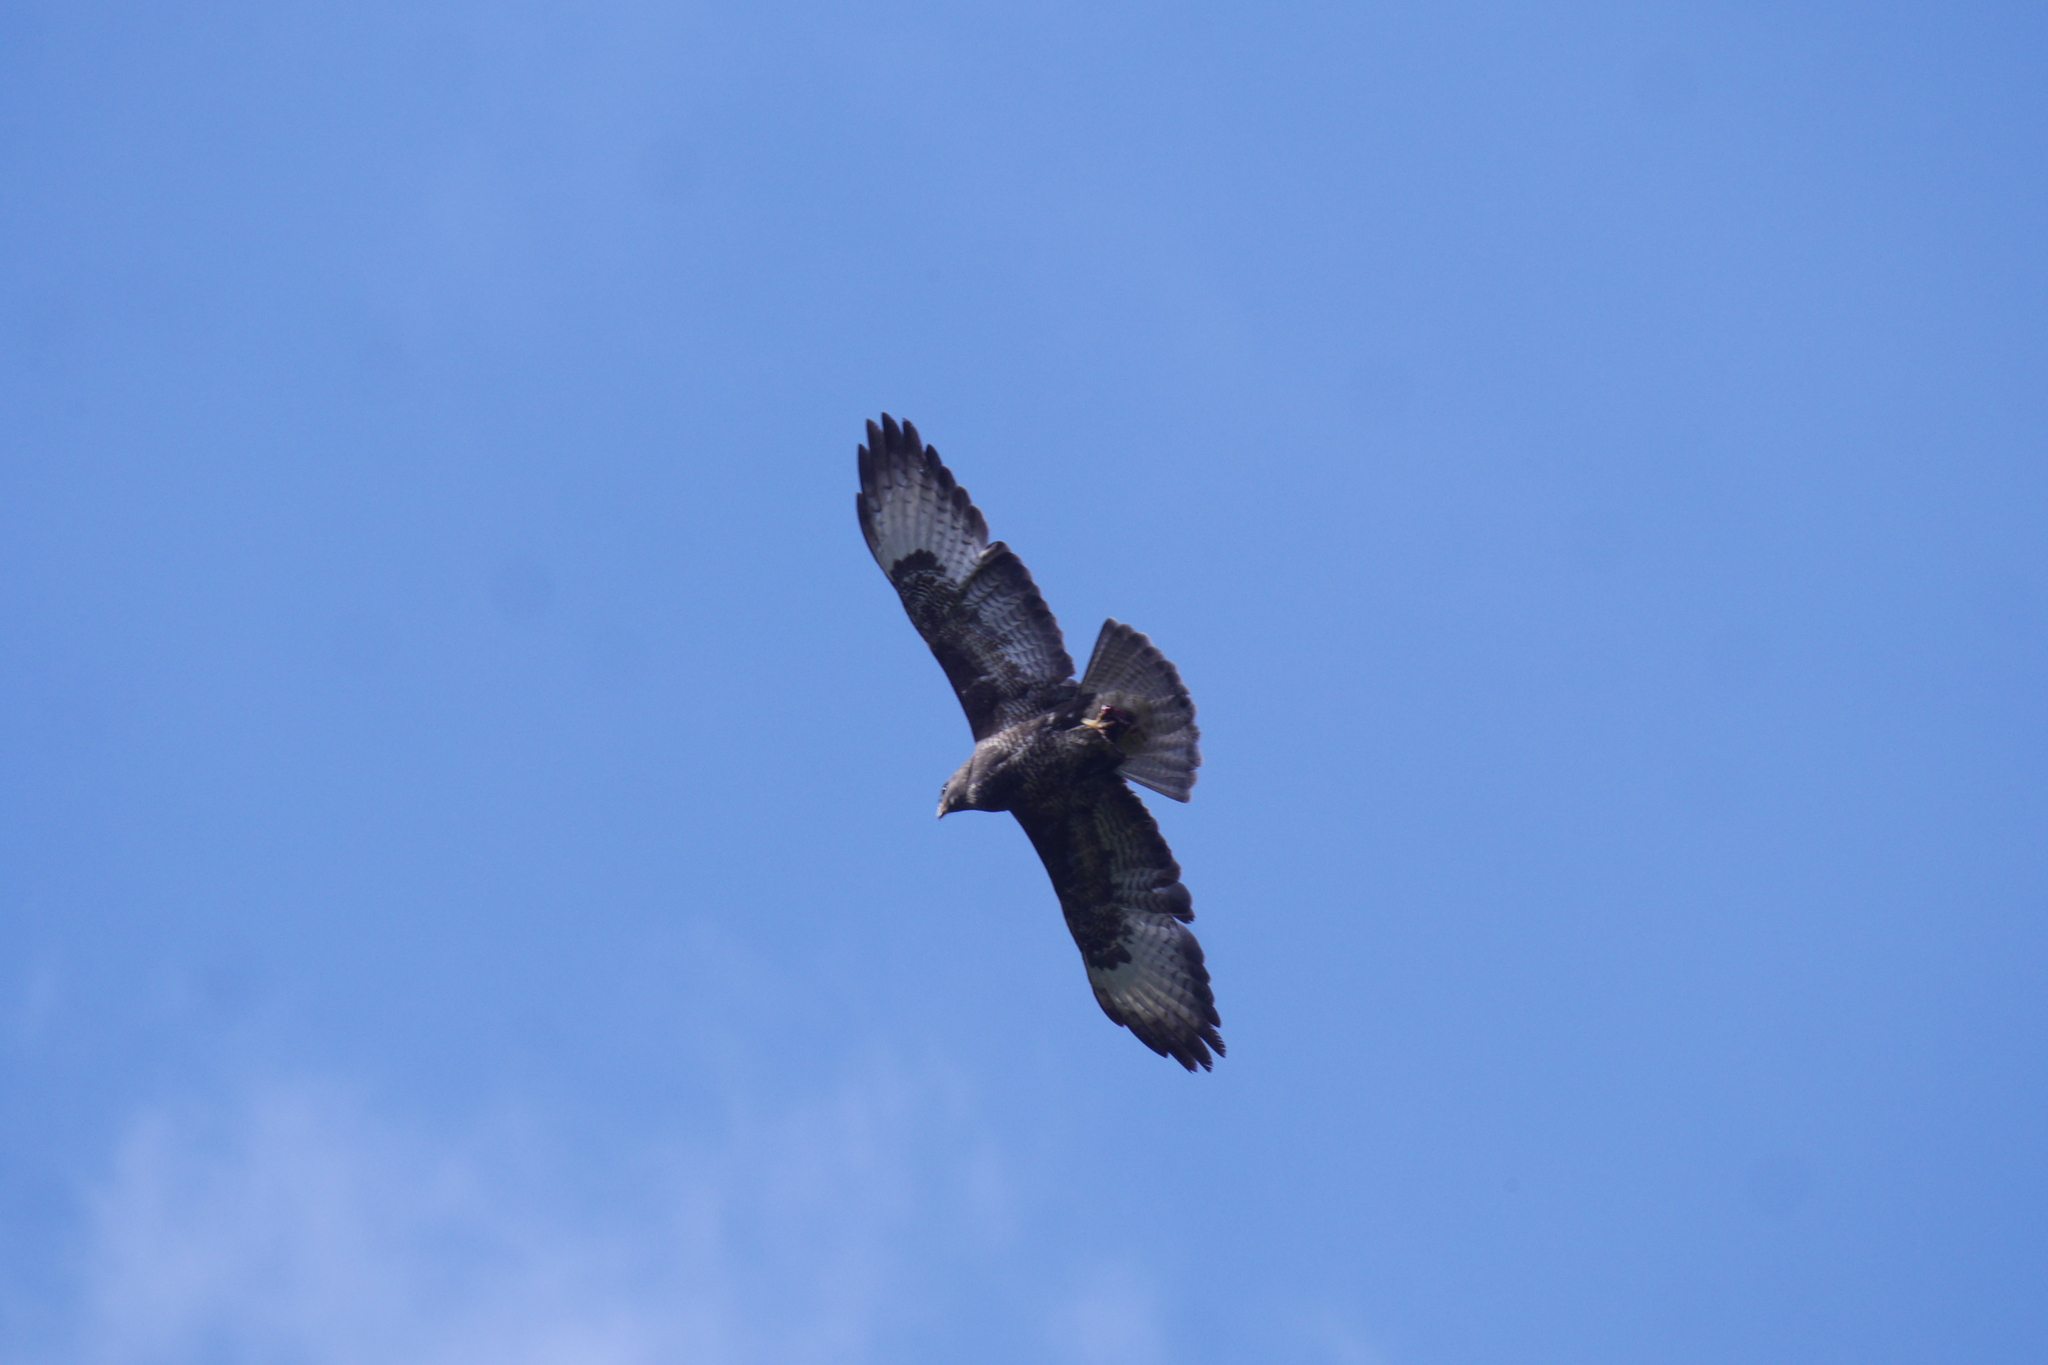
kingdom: Animalia
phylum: Chordata
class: Aves
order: Accipitriformes
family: Accipitridae
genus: Buteo
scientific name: Buteo buteo
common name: Common buzzard
